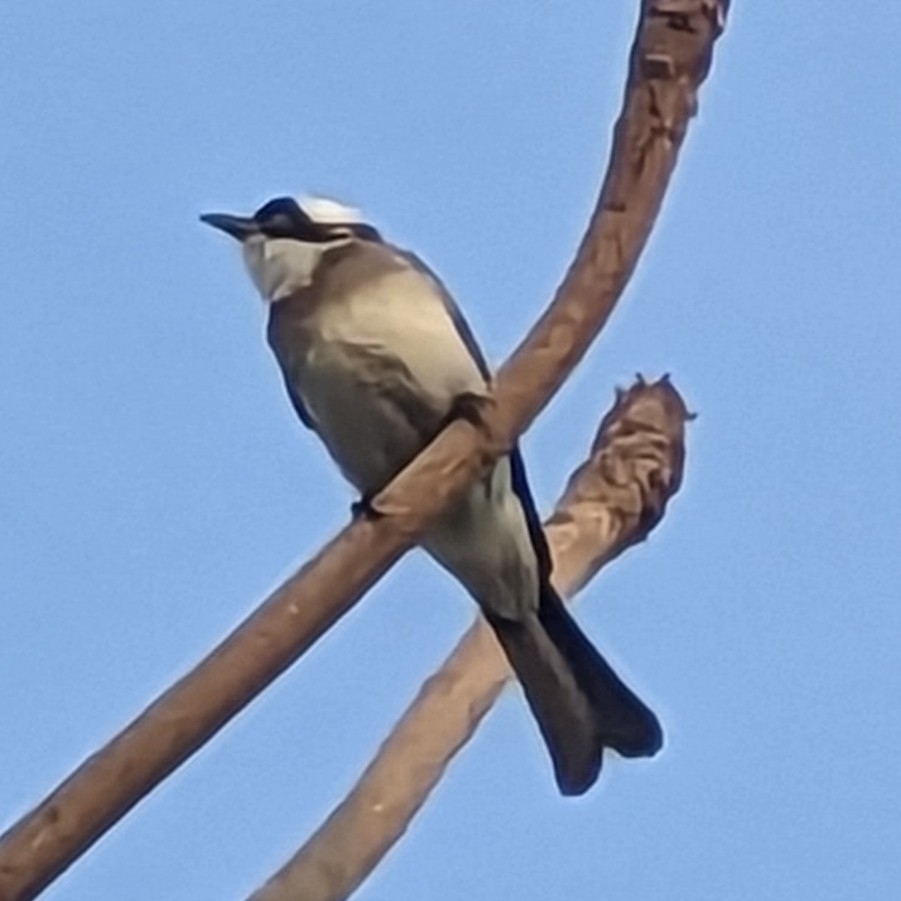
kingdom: Animalia
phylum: Chordata
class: Aves
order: Passeriformes
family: Pycnonotidae
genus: Pycnonotus
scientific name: Pycnonotus sinensis
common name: Light-vented bulbul
